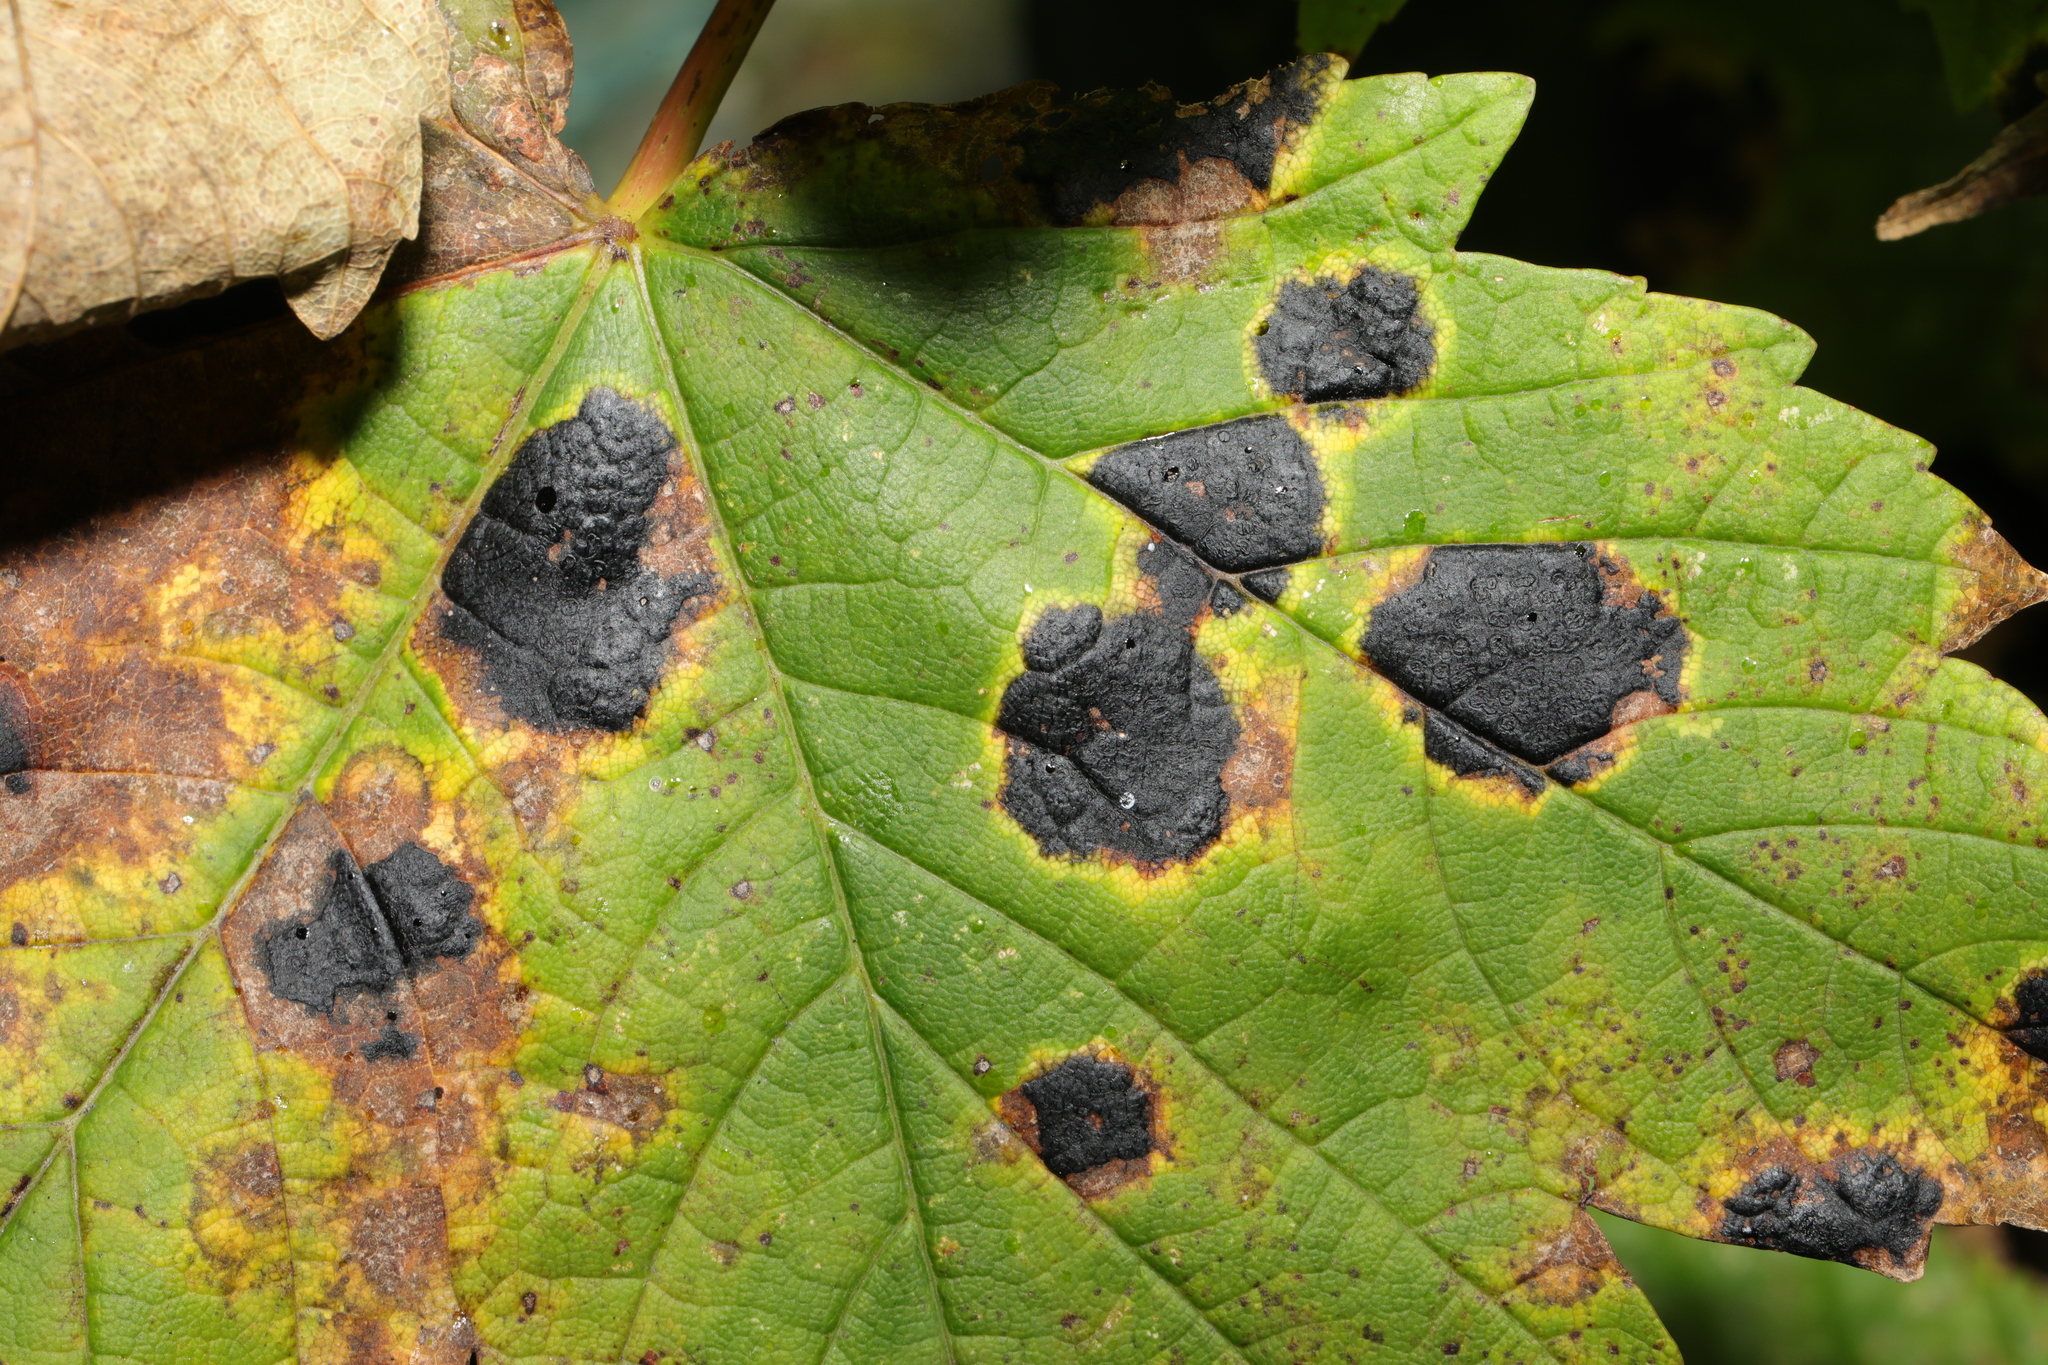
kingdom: Fungi
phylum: Ascomycota
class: Leotiomycetes
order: Rhytismatales
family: Rhytismataceae
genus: Rhytisma
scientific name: Rhytisma acerinum
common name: European tar spot
